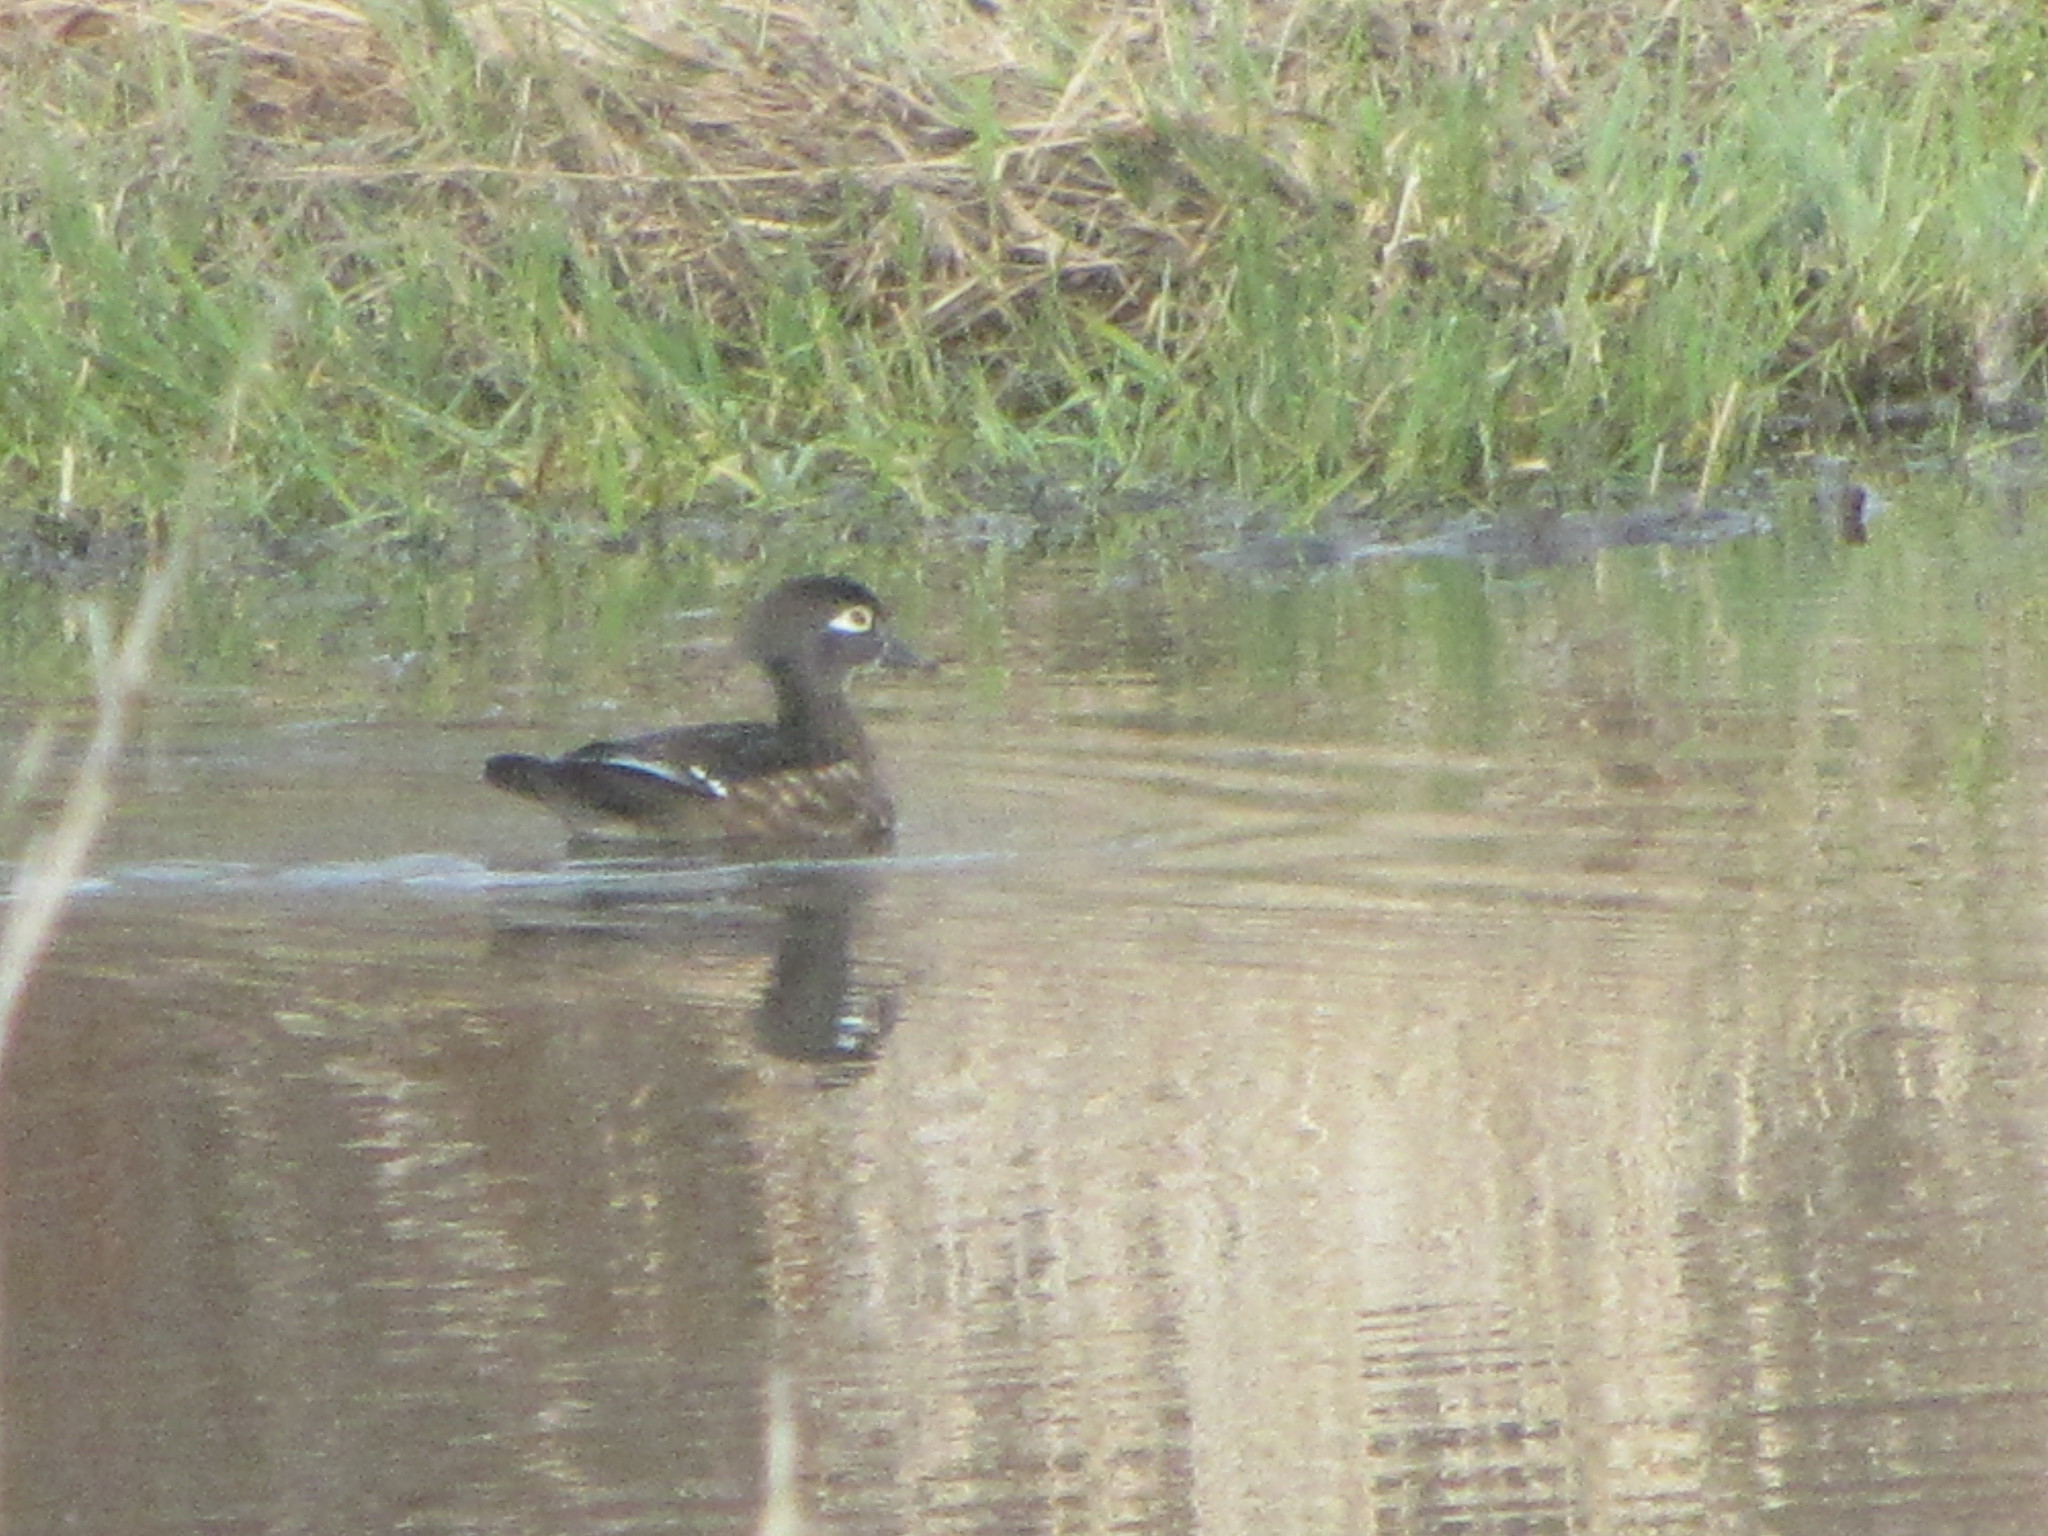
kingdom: Animalia
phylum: Chordata
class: Aves
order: Anseriformes
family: Anatidae
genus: Aix
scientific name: Aix sponsa
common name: Wood duck
